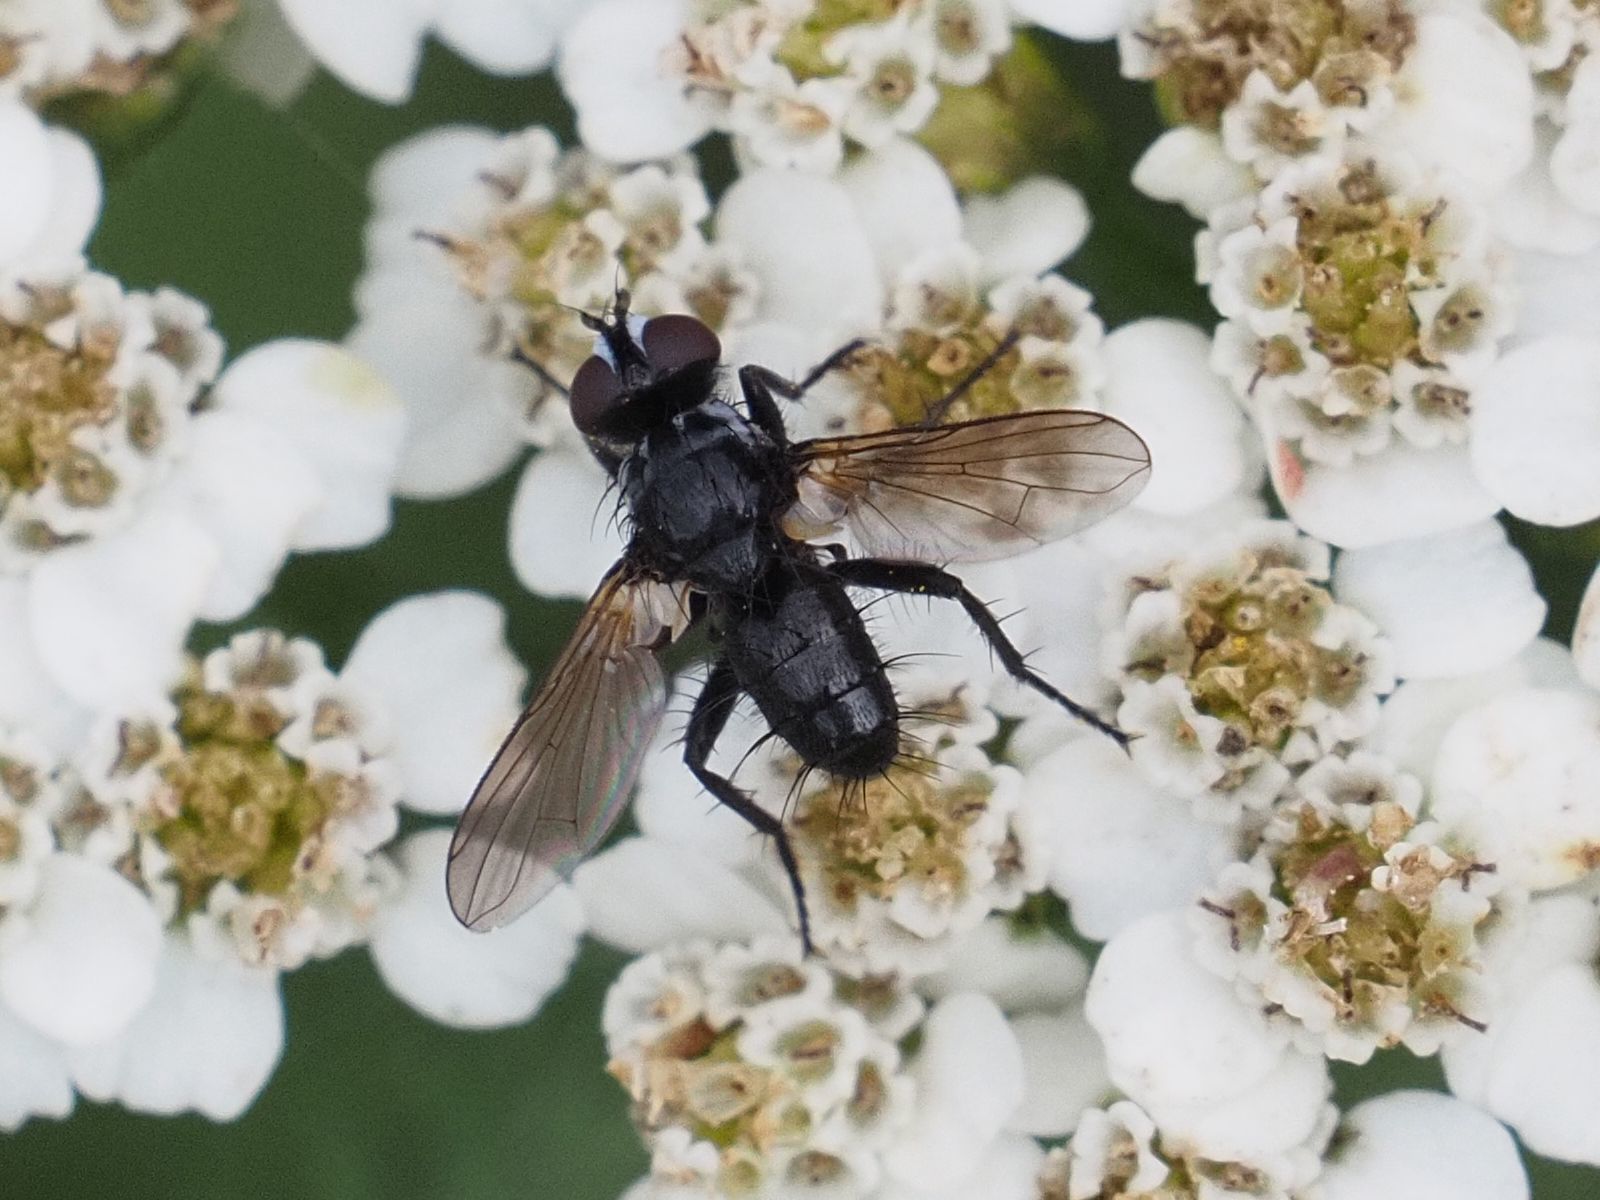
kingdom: Animalia
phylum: Arthropoda
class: Insecta
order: Diptera
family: Tachinidae
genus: Phania
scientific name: Phania funesta
